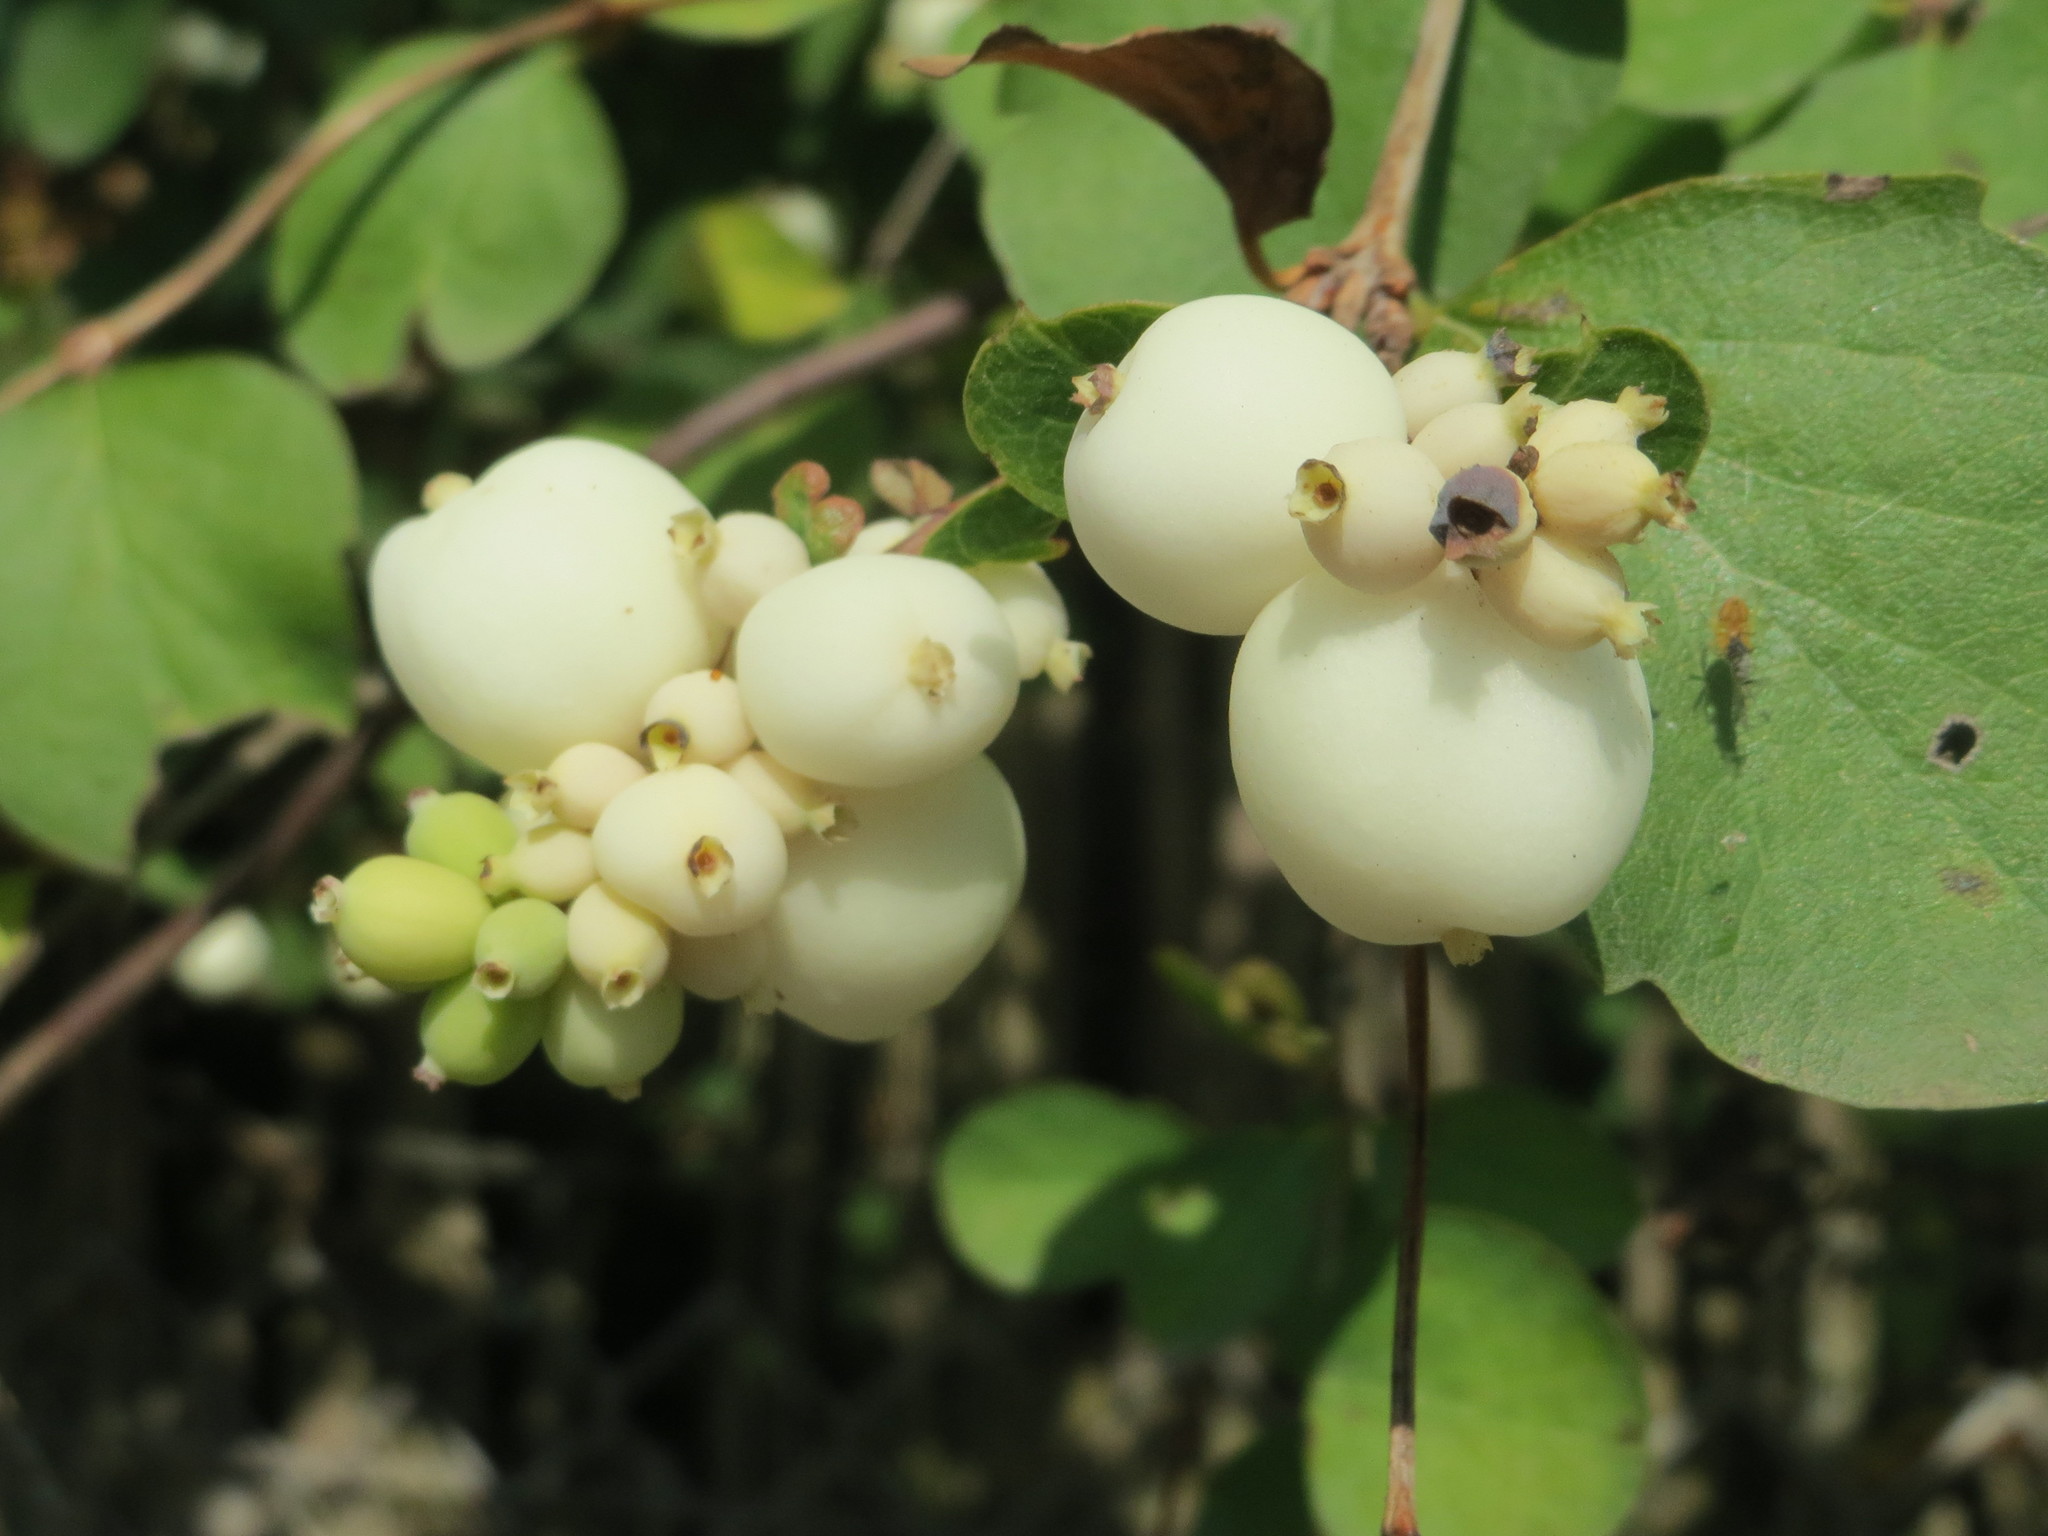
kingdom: Plantae
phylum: Tracheophyta
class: Magnoliopsida
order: Dipsacales
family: Caprifoliaceae
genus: Symphoricarpos
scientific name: Symphoricarpos albus
